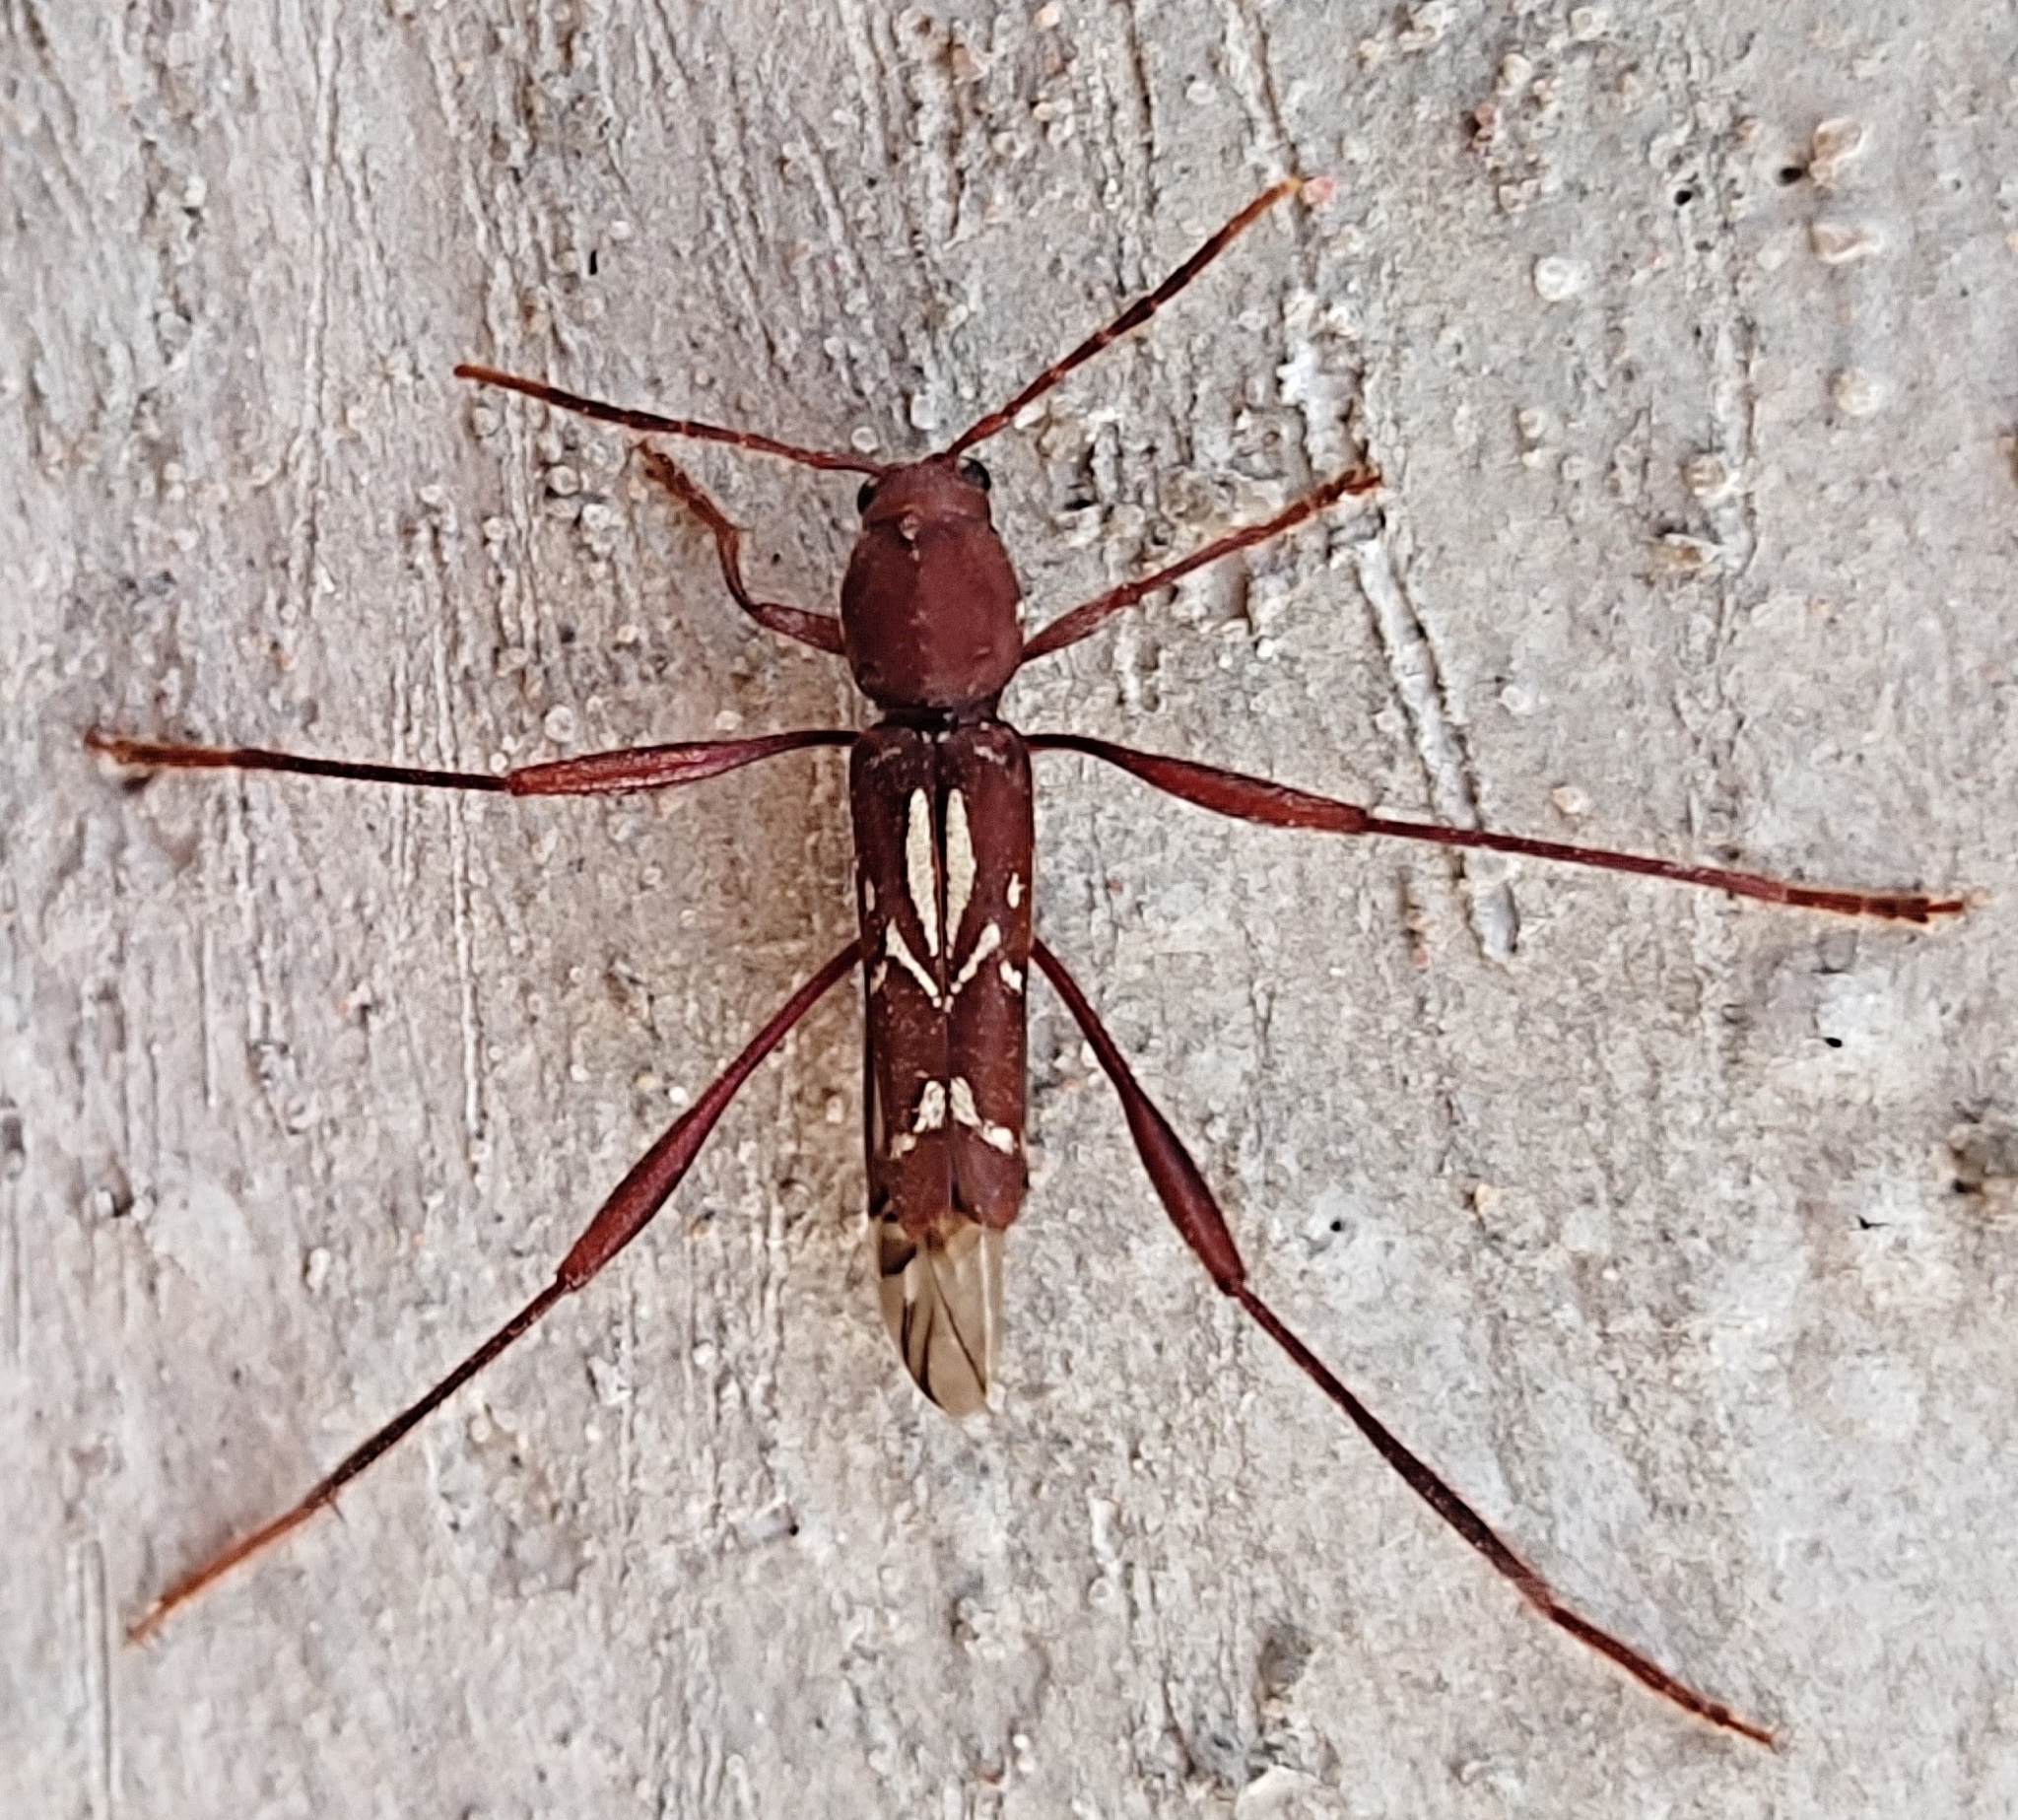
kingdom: Animalia
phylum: Arthropoda
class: Insecta
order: Coleoptera
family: Cerambycidae
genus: Neoclytus
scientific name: Neoclytus rufus
